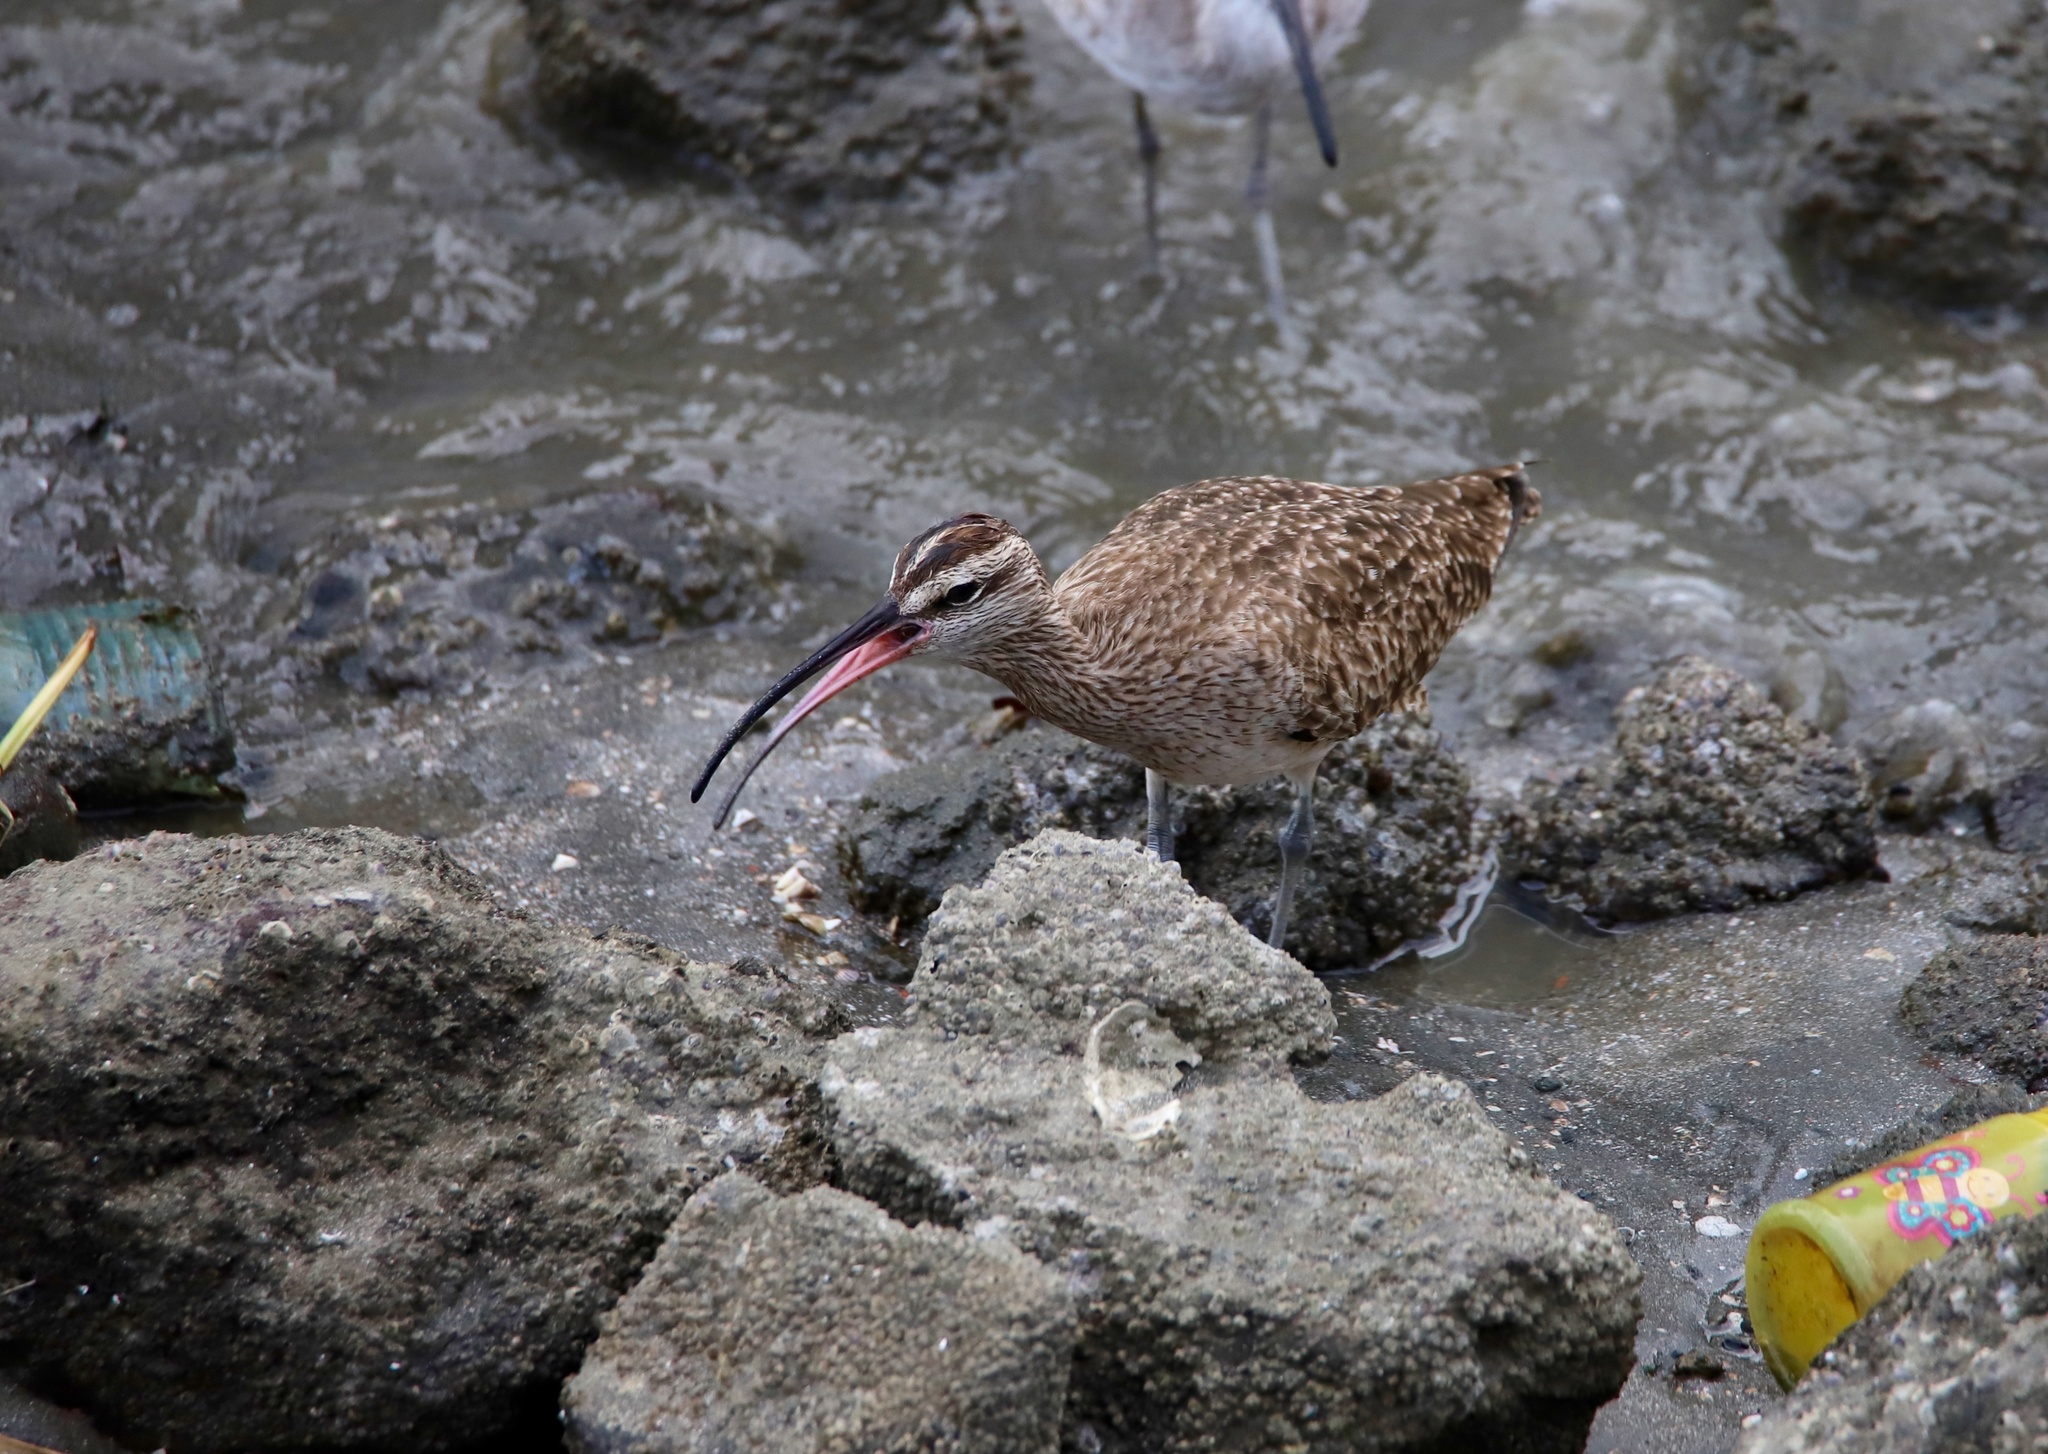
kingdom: Animalia
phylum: Chordata
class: Aves
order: Charadriiformes
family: Scolopacidae
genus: Numenius
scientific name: Numenius phaeopus
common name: Whimbrel
